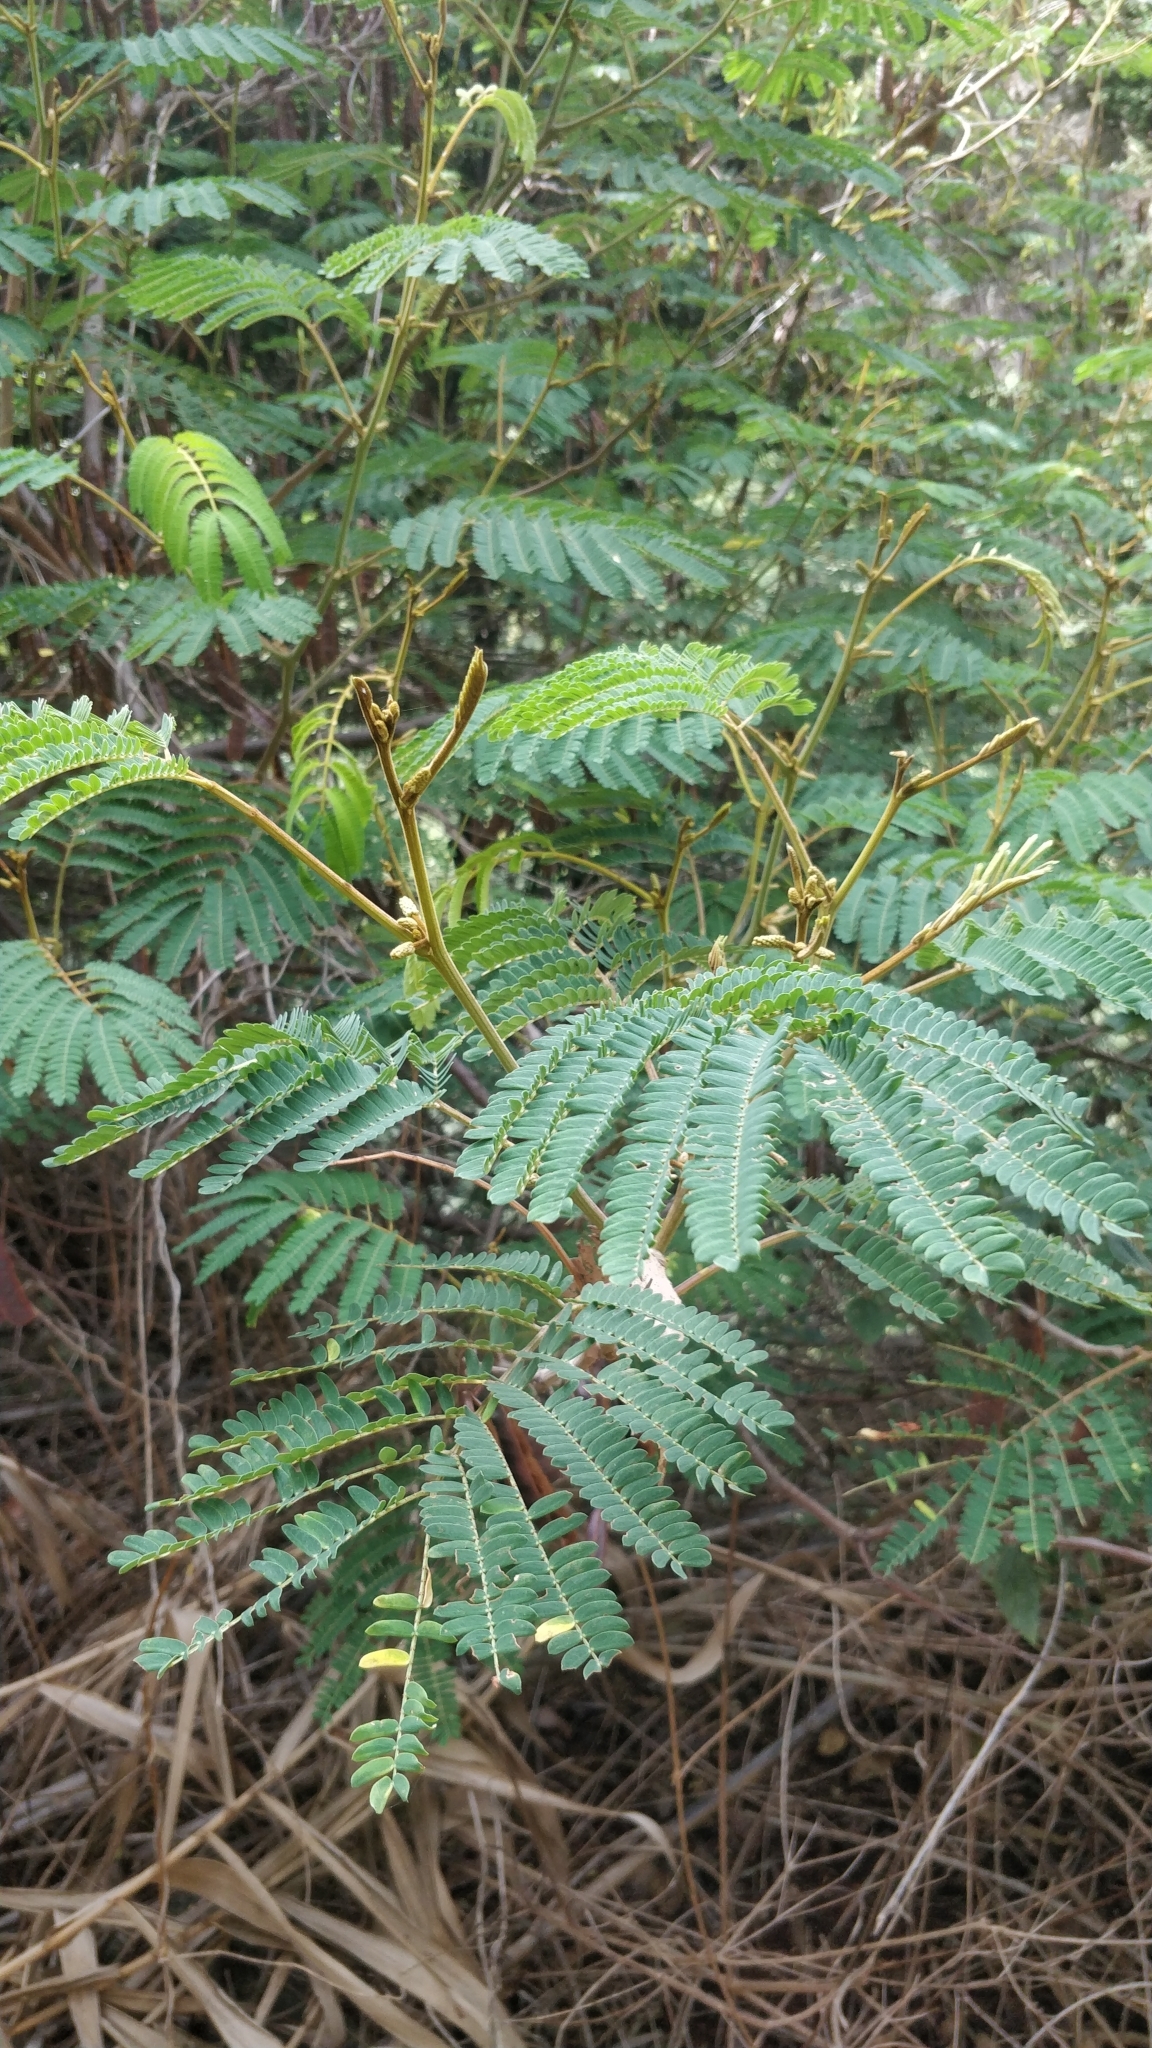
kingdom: Plantae
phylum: Tracheophyta
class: Magnoliopsida
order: Fabales
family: Fabaceae
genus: Paraserianthes
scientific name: Paraserianthes lophantha
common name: Plume albizia
